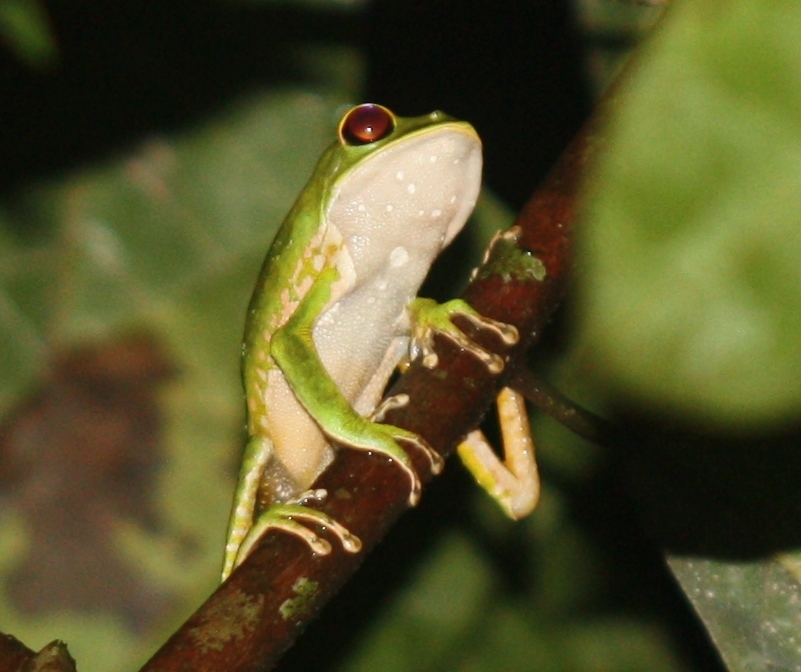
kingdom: Animalia
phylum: Chordata
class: Amphibia
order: Anura
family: Phyllomedusidae
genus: Phyllomedusa
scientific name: Phyllomedusa camba
